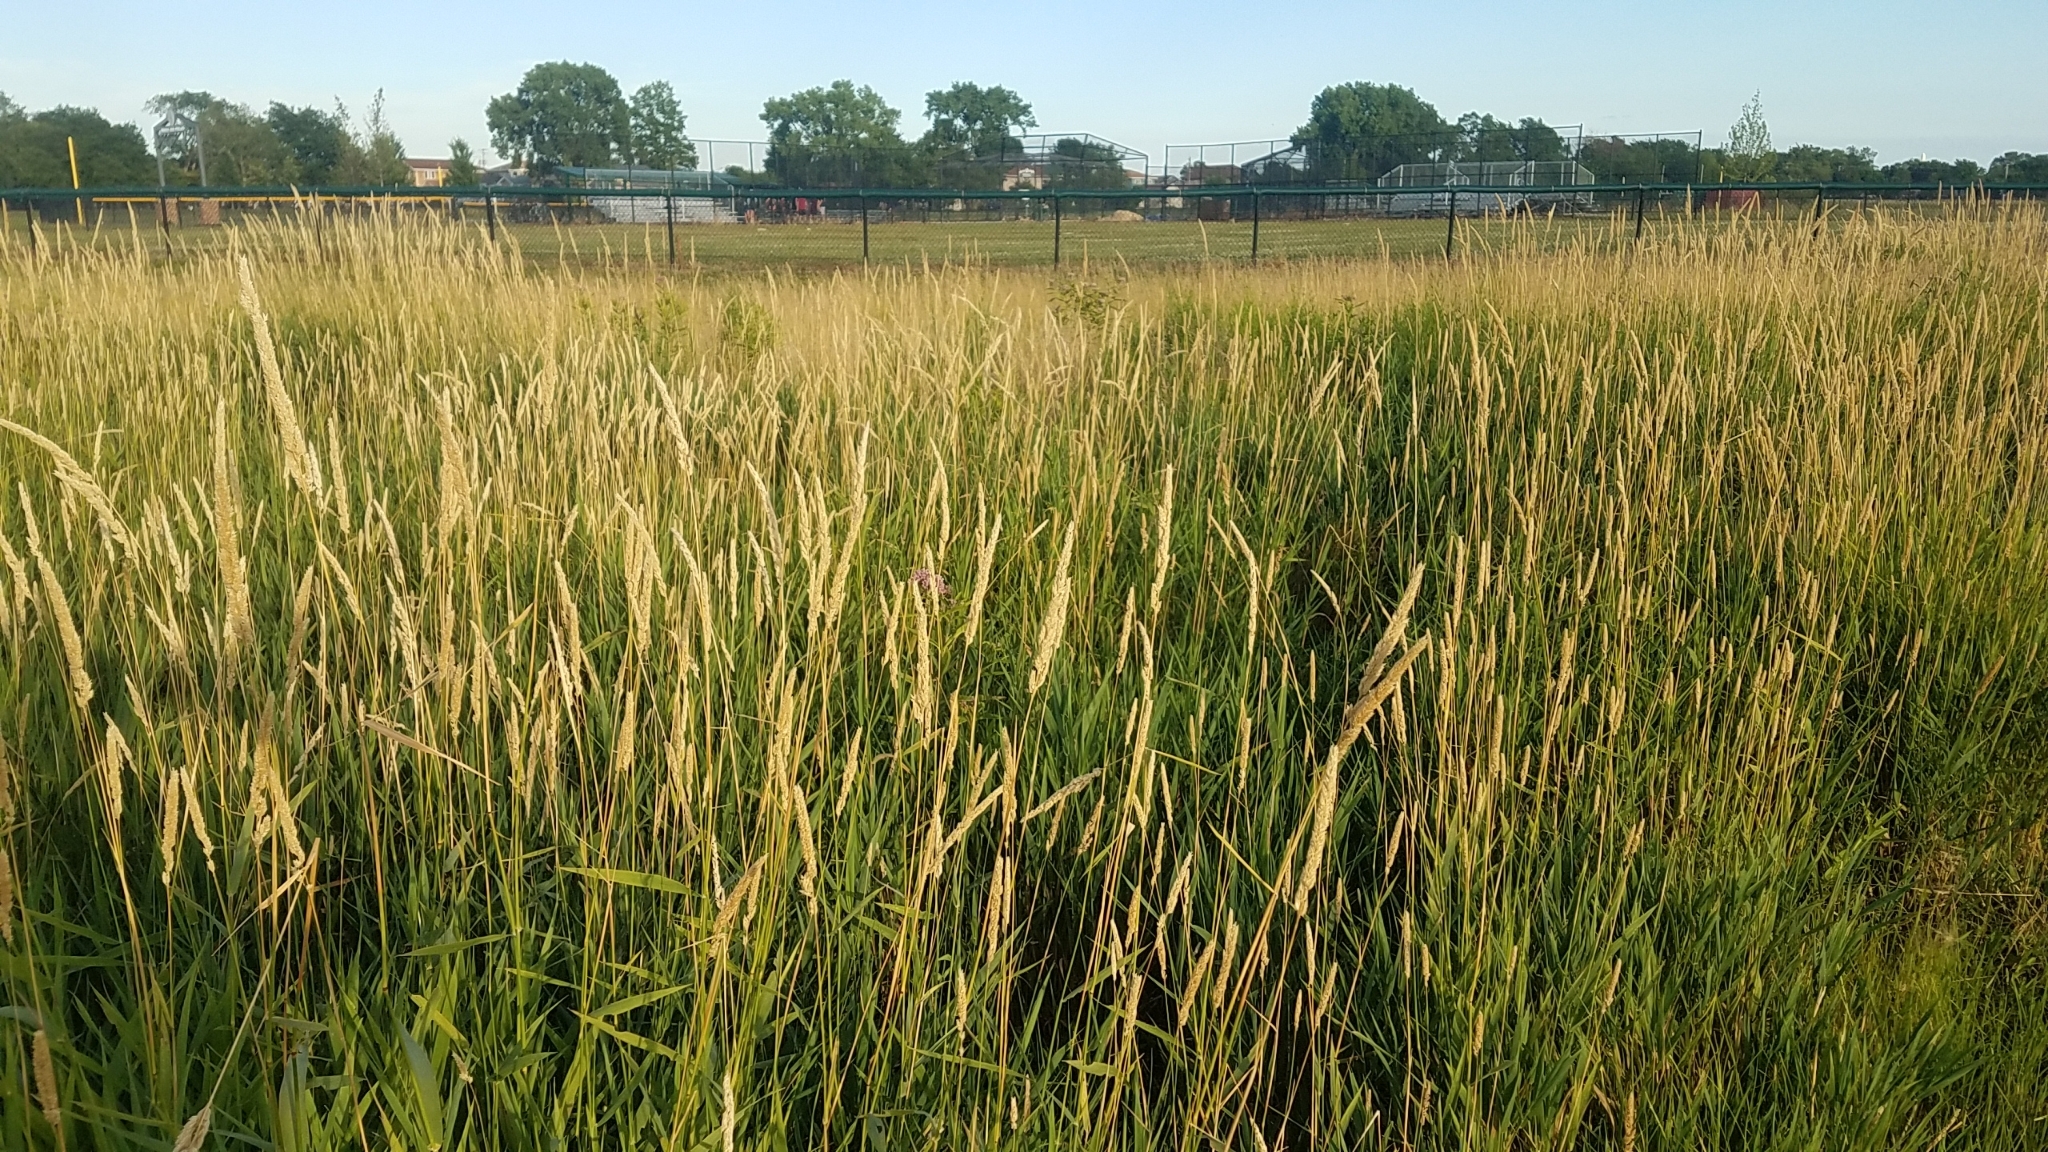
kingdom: Plantae
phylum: Tracheophyta
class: Magnoliopsida
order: Gentianales
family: Apocynaceae
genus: Asclepias
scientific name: Asclepias incarnata
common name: Swamp milkweed
